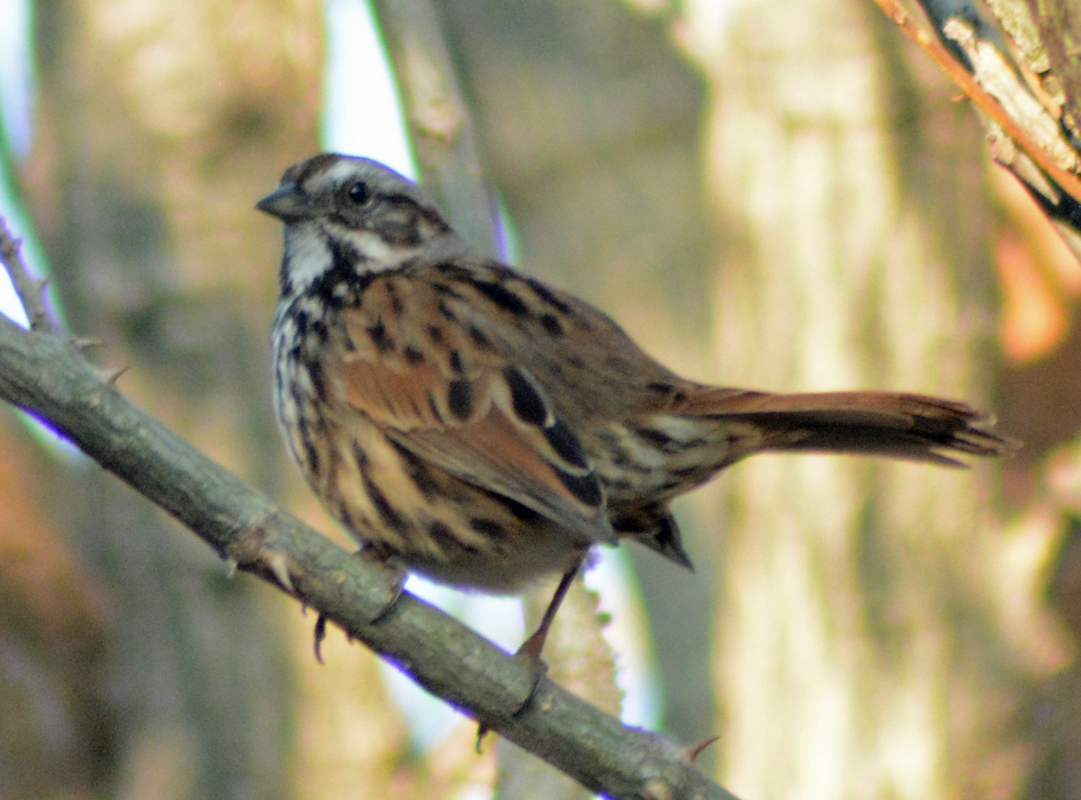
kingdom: Animalia
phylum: Chordata
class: Aves
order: Passeriformes
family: Passerellidae
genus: Melospiza
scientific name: Melospiza melodia
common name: Song sparrow
